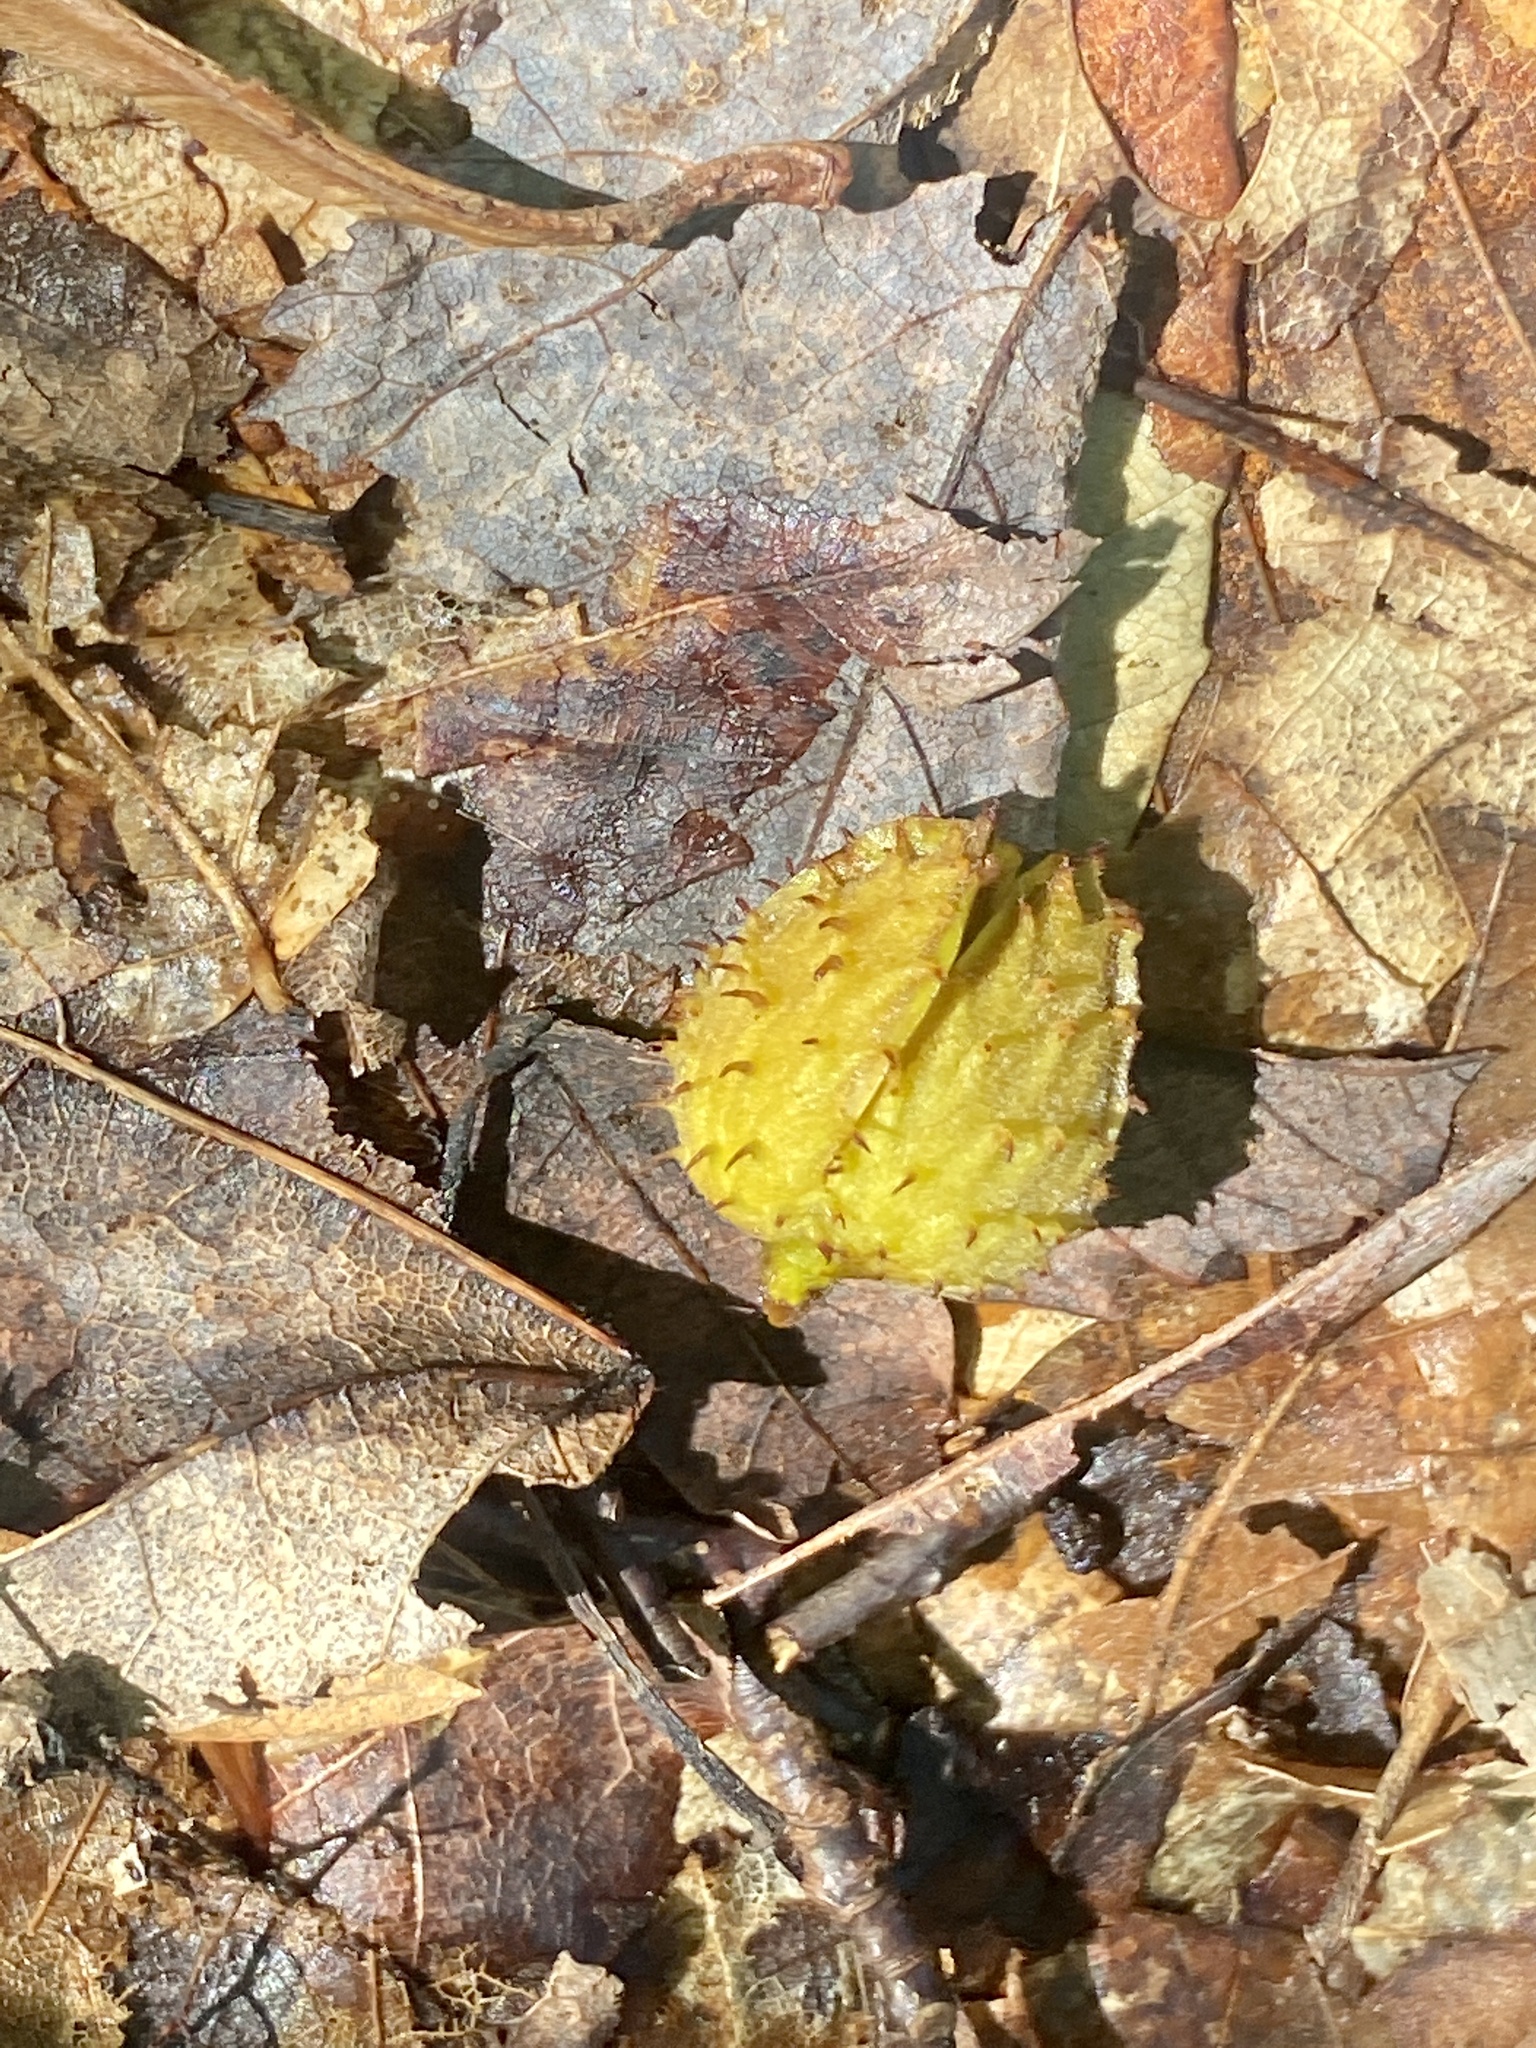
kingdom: Plantae
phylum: Tracheophyta
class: Magnoliopsida
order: Fagales
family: Fagaceae
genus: Fagus
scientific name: Fagus grandifolia
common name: American beech
